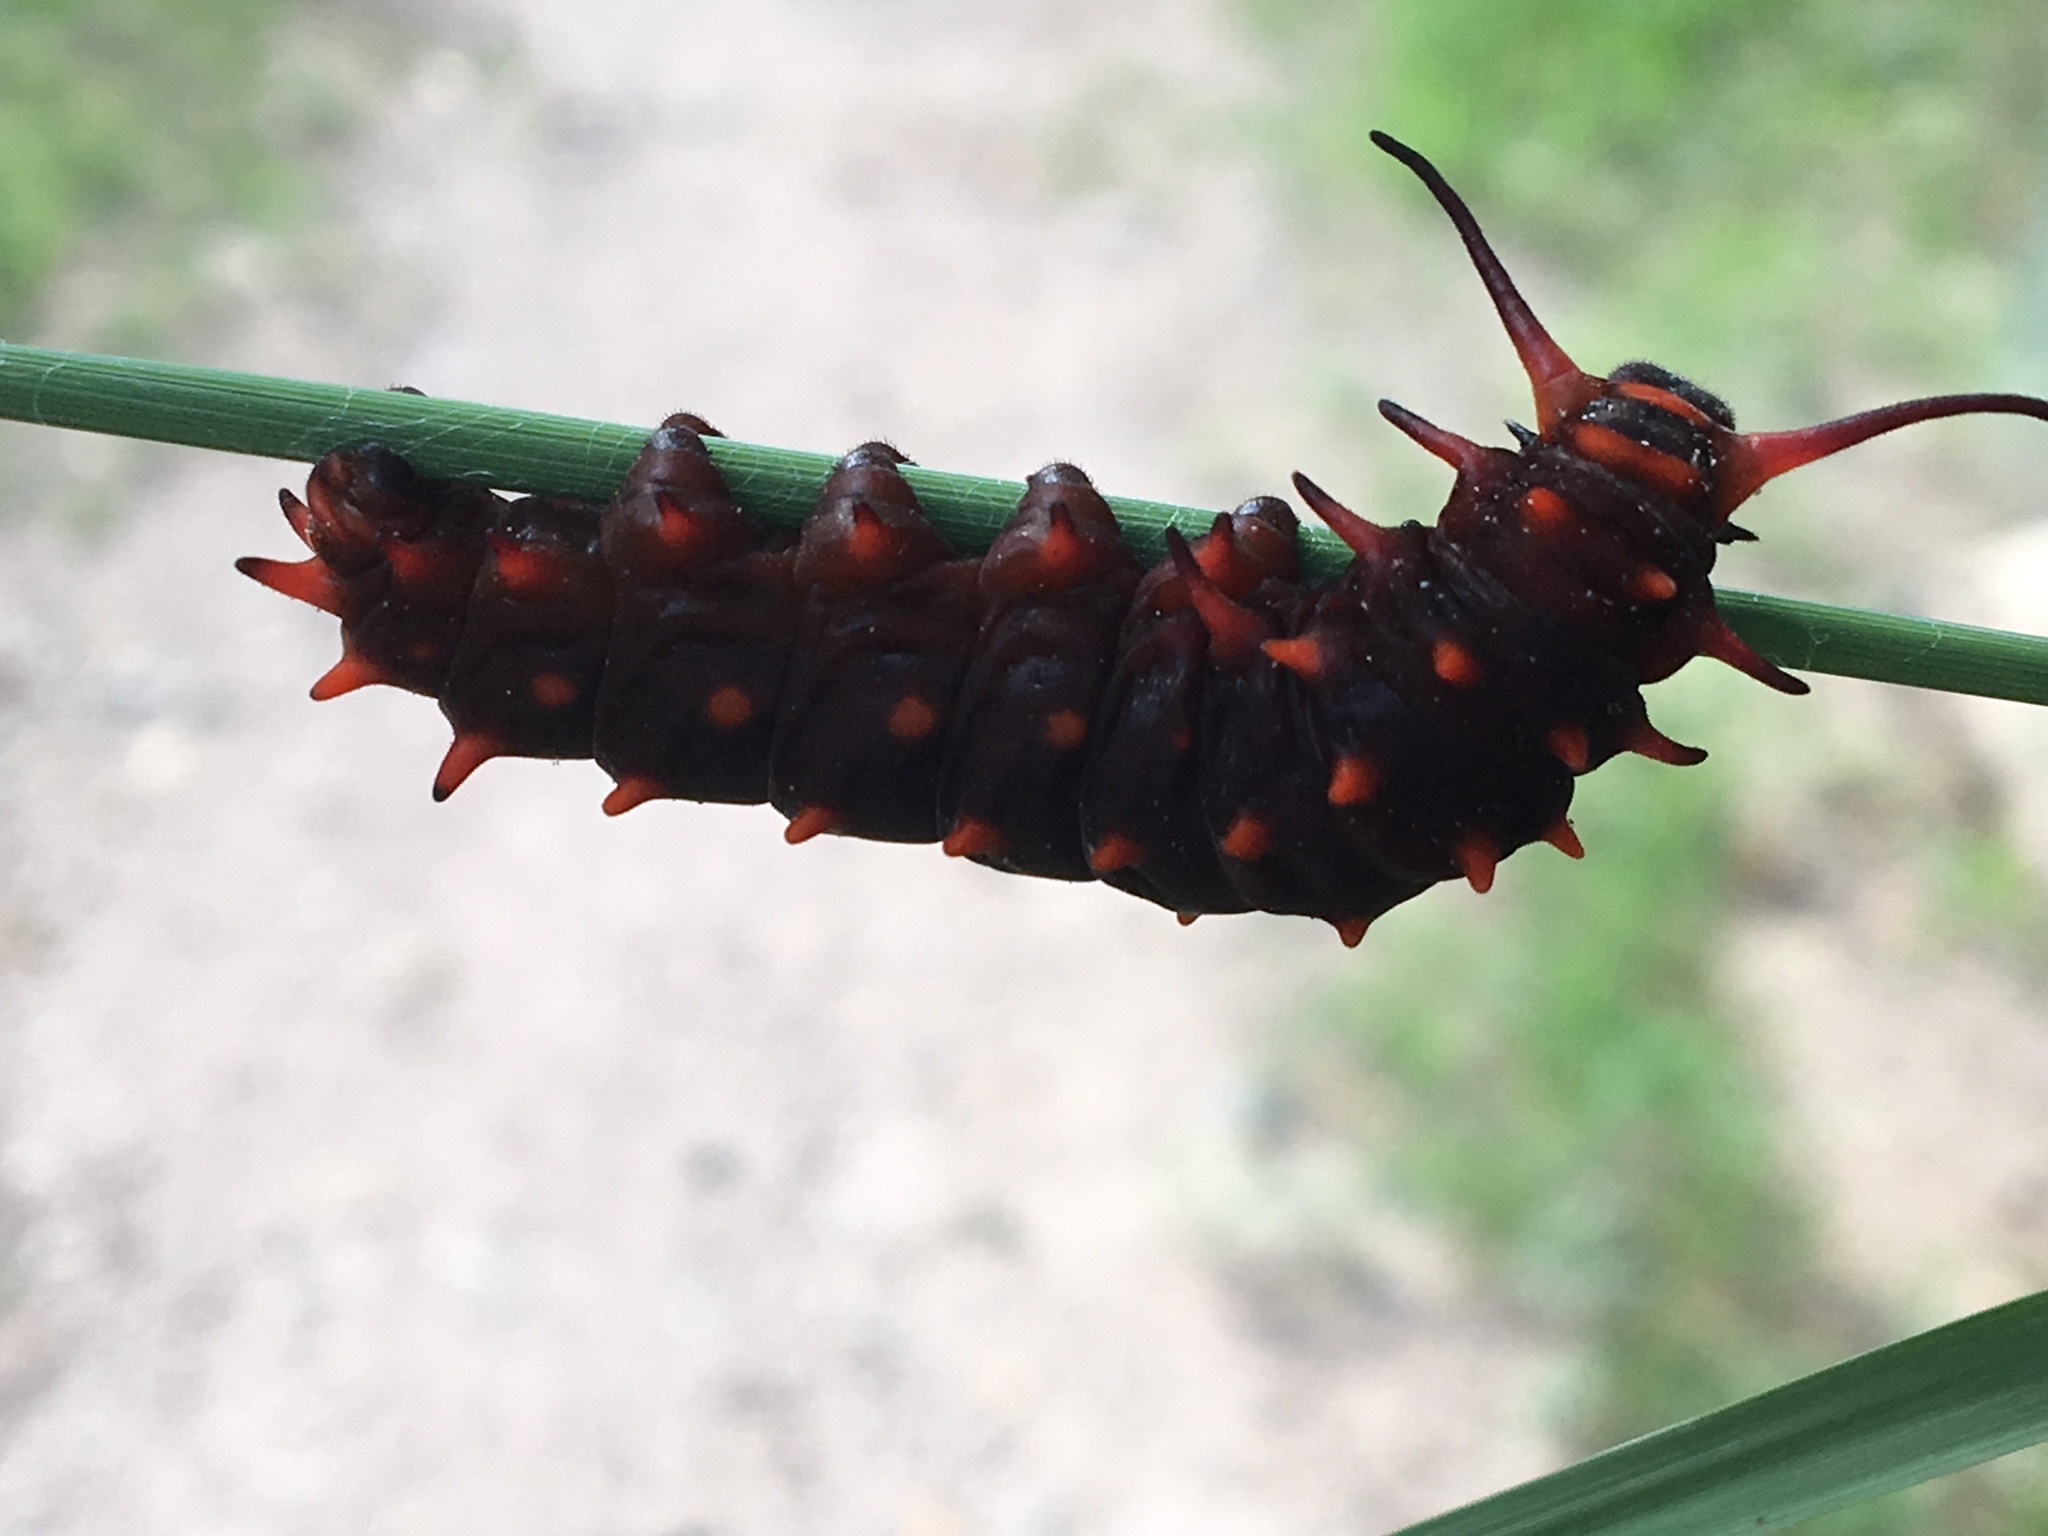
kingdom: Animalia
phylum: Arthropoda
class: Insecta
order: Lepidoptera
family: Papilionidae
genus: Battus
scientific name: Battus philenor
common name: Pipevine swallowtail
